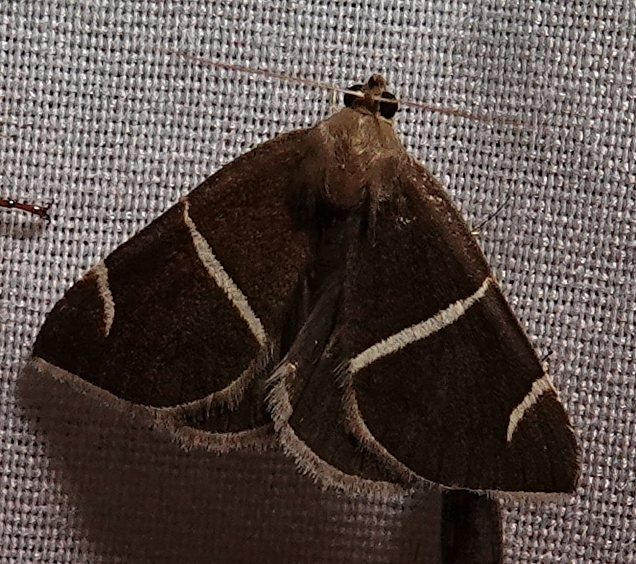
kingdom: Animalia
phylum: Arthropoda
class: Insecta
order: Lepidoptera
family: Erebidae
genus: Argyrostrotis
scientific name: Argyrostrotis anilis
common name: Short-lined chocolate
